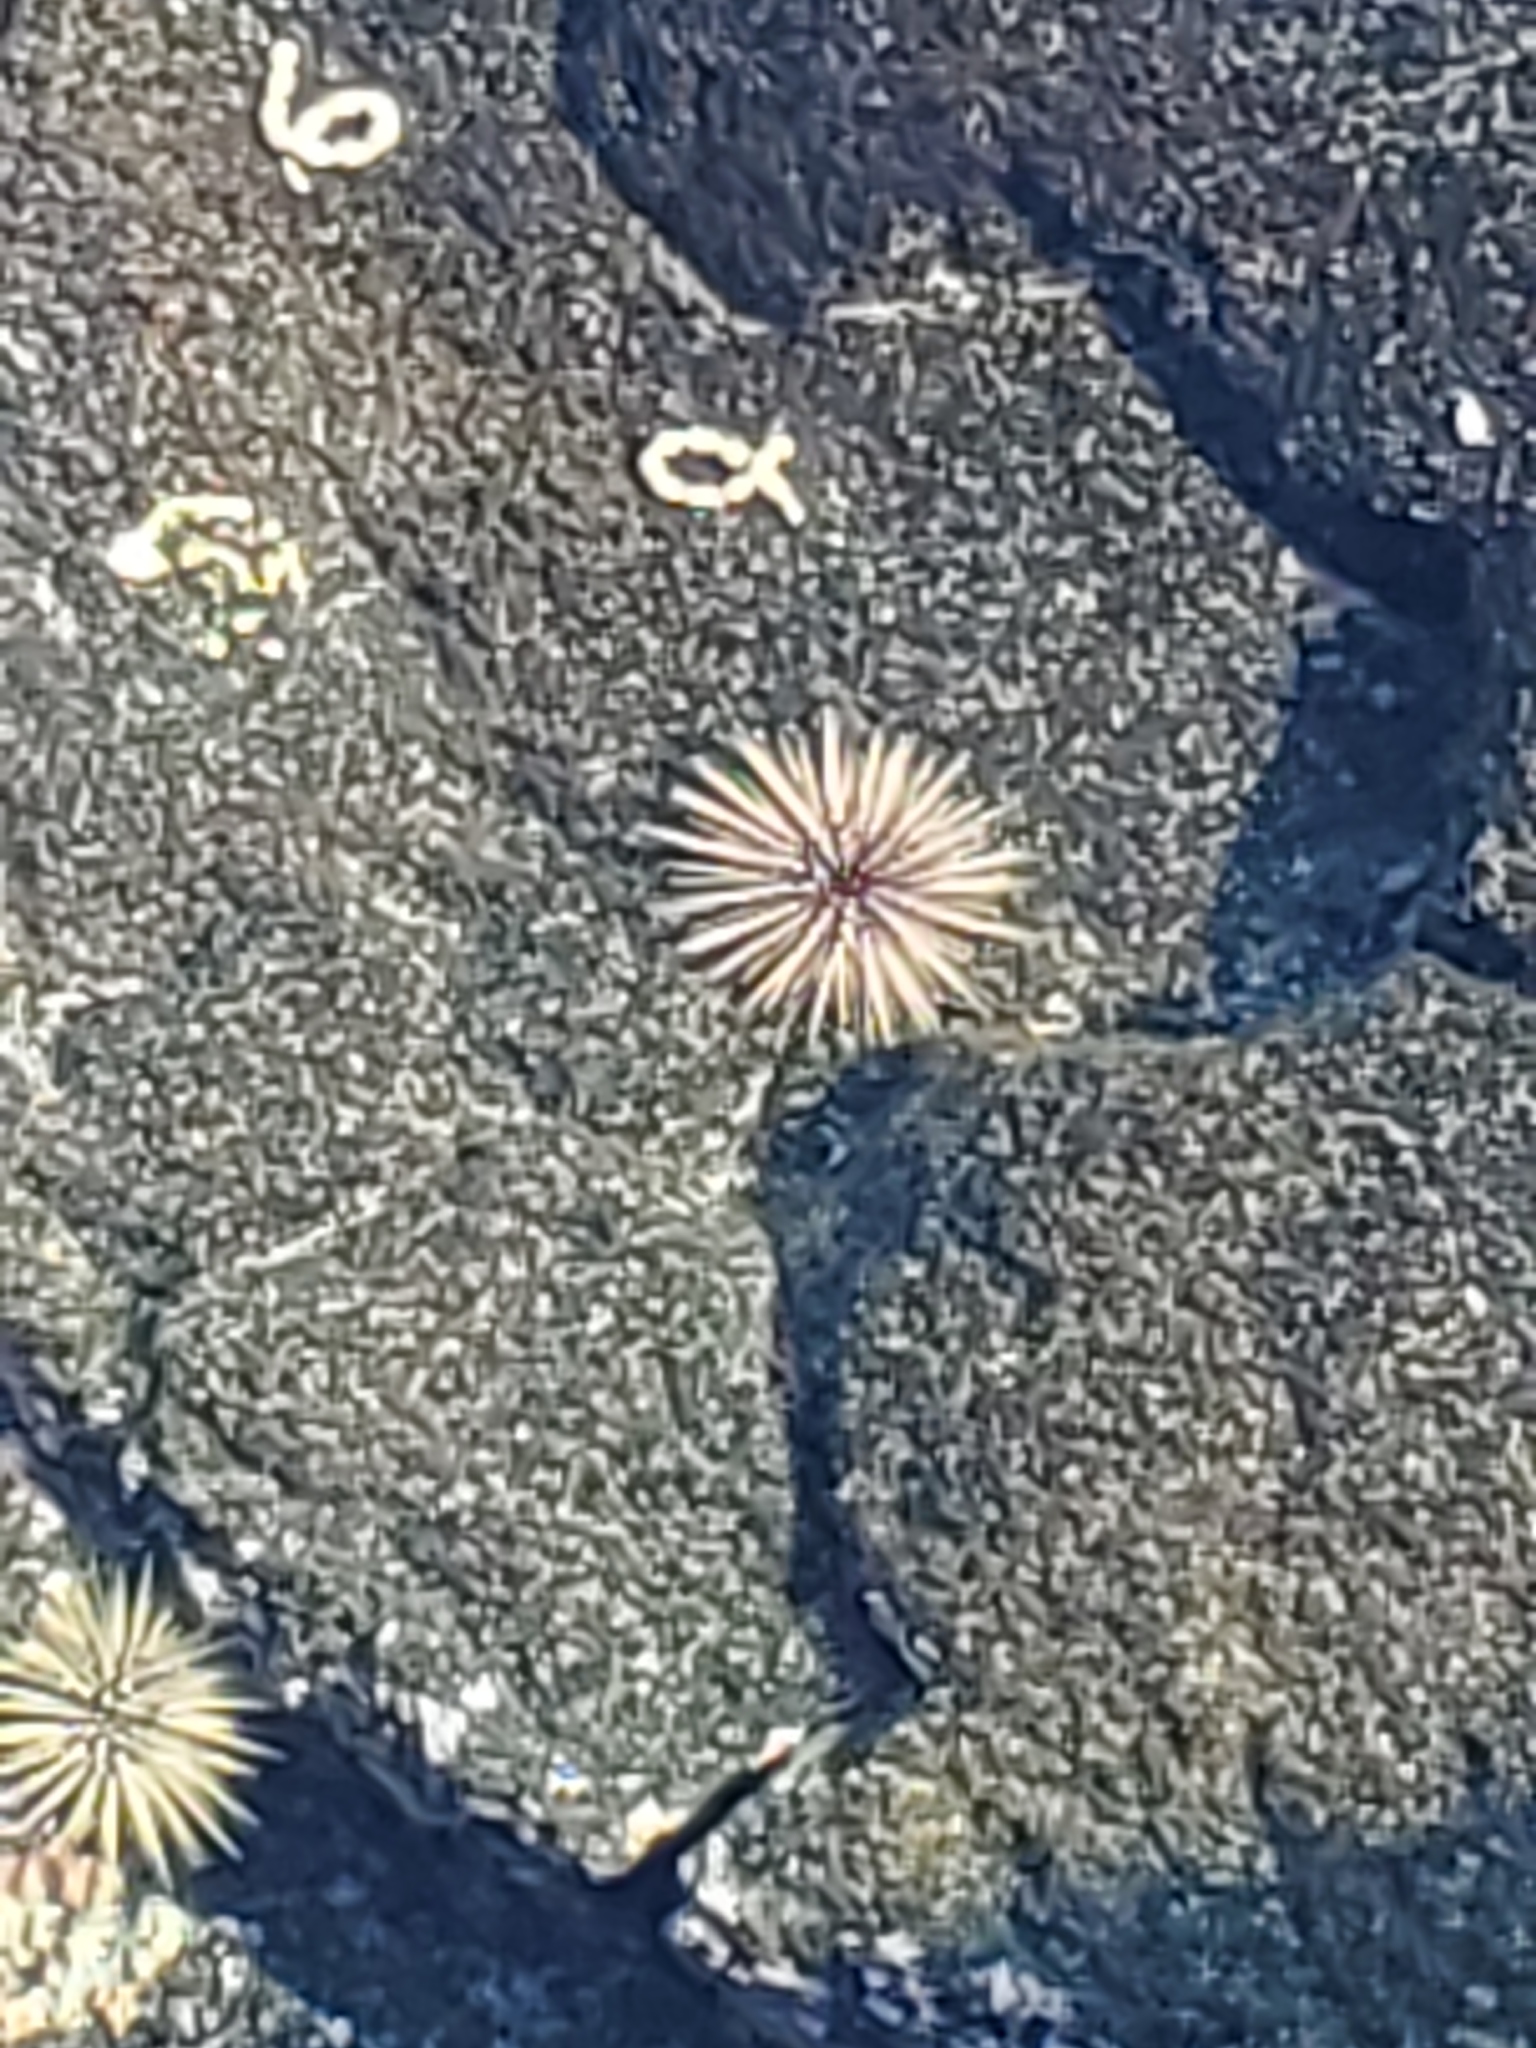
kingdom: Animalia
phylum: Echinodermata
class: Echinoidea
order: Camarodonta
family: Echinometridae
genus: Echinometra
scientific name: Echinometra mathaei
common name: Rock-boring urchin
